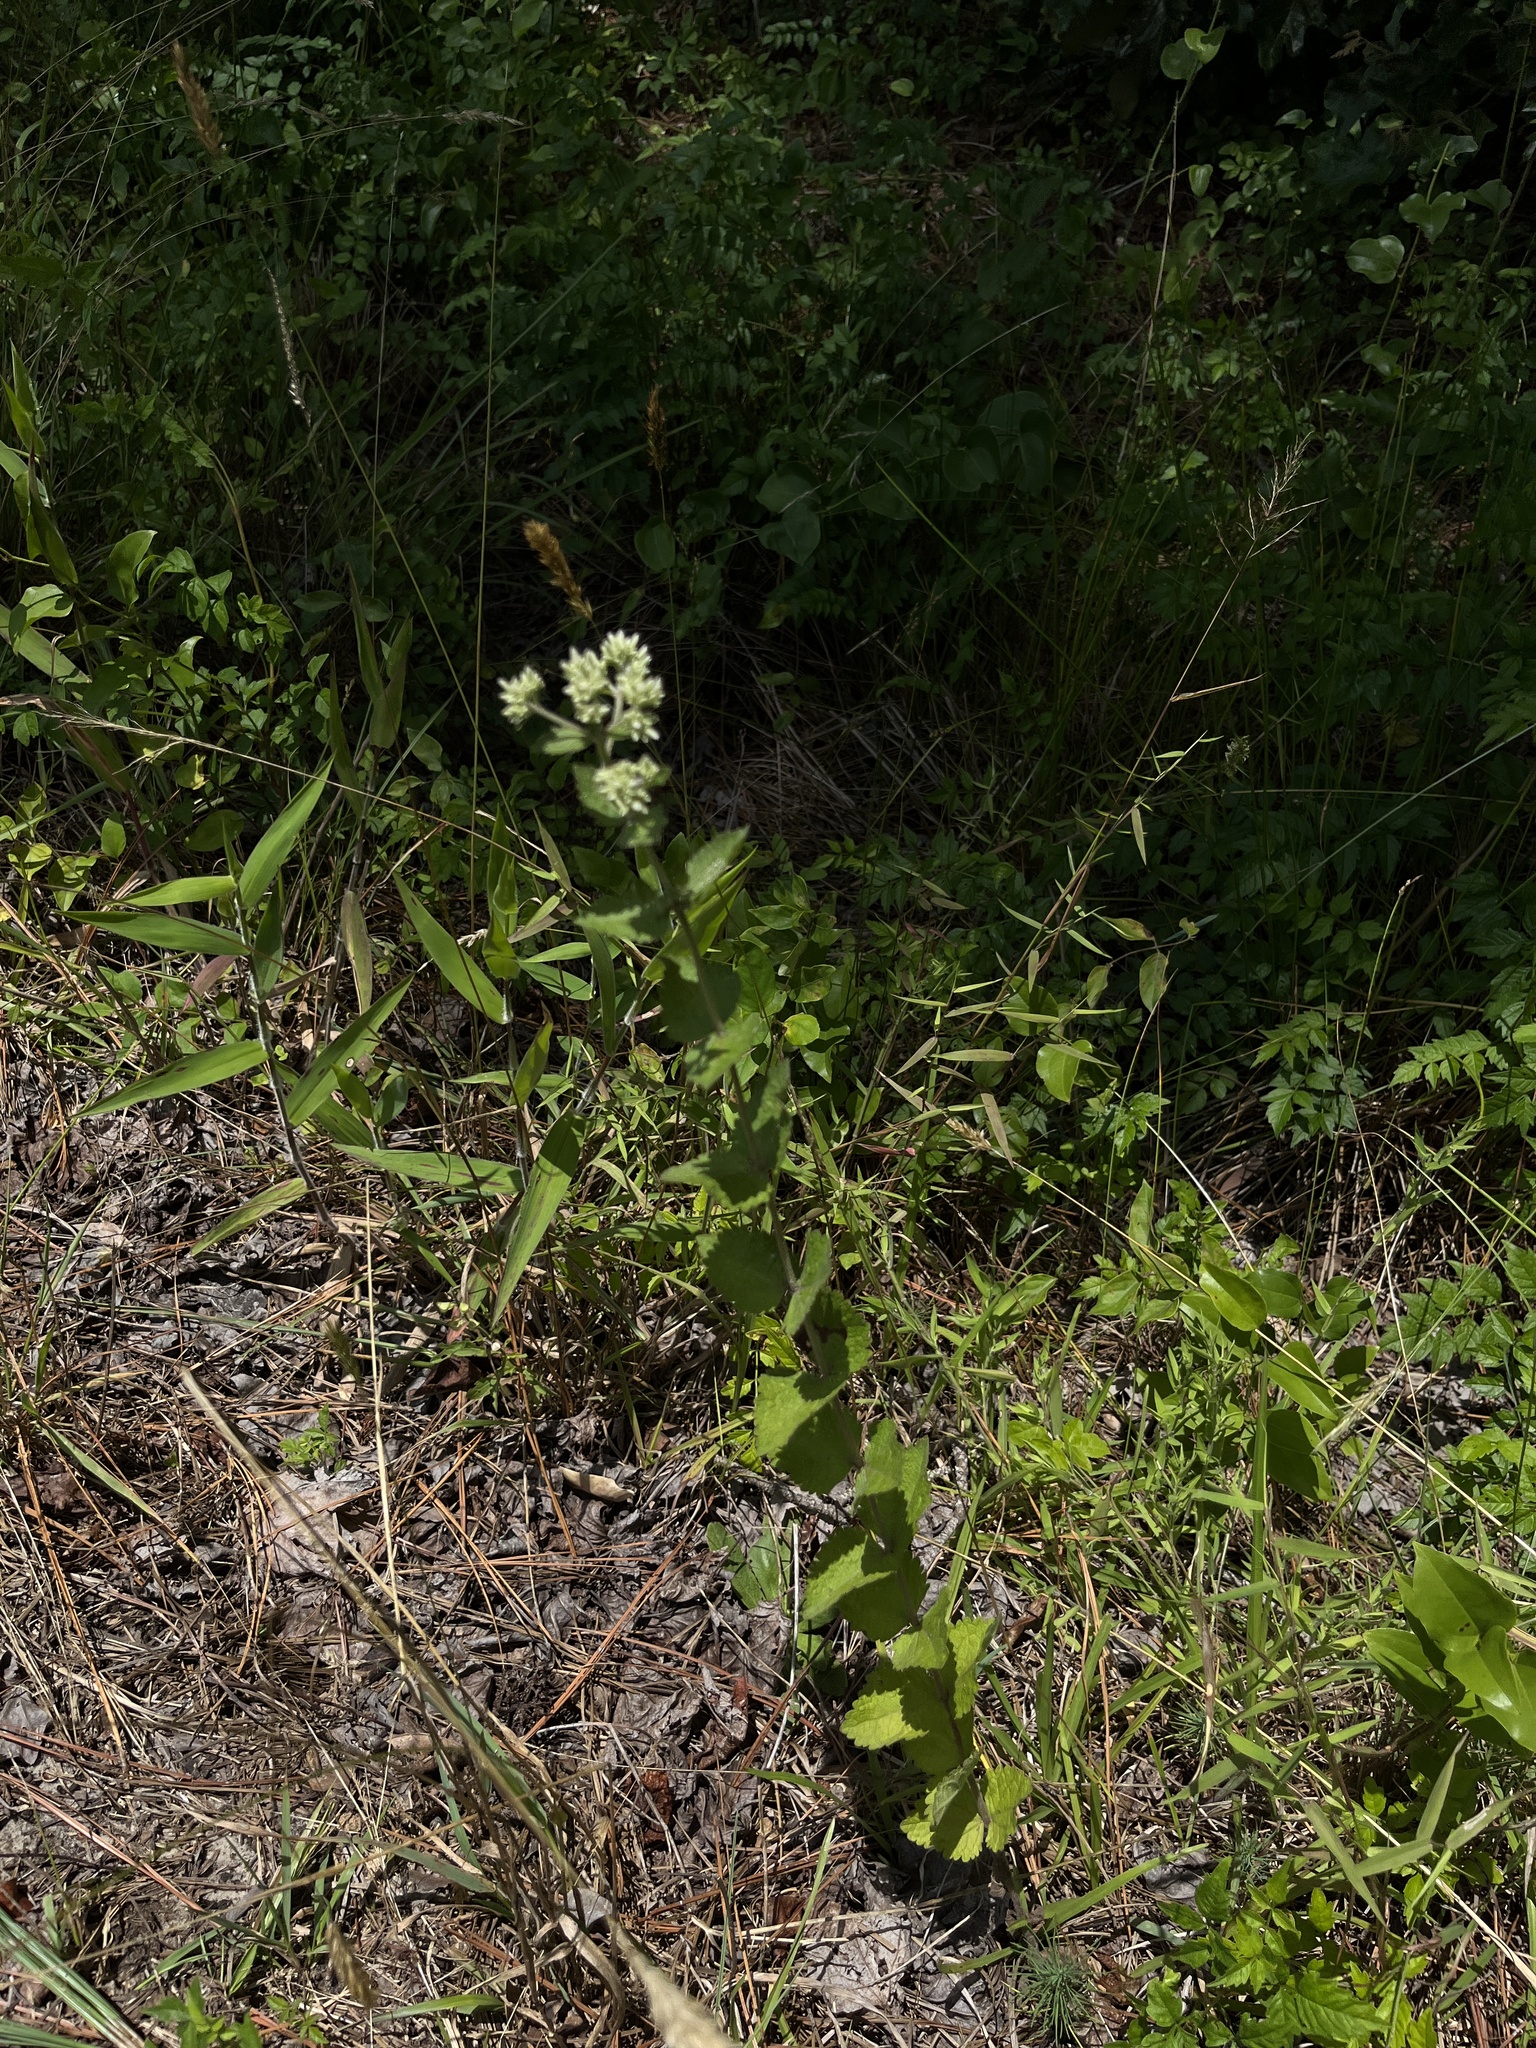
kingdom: Plantae
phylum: Tracheophyta
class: Magnoliopsida
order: Asterales
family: Asteraceae
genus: Eupatorium
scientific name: Eupatorium rotundifolium
